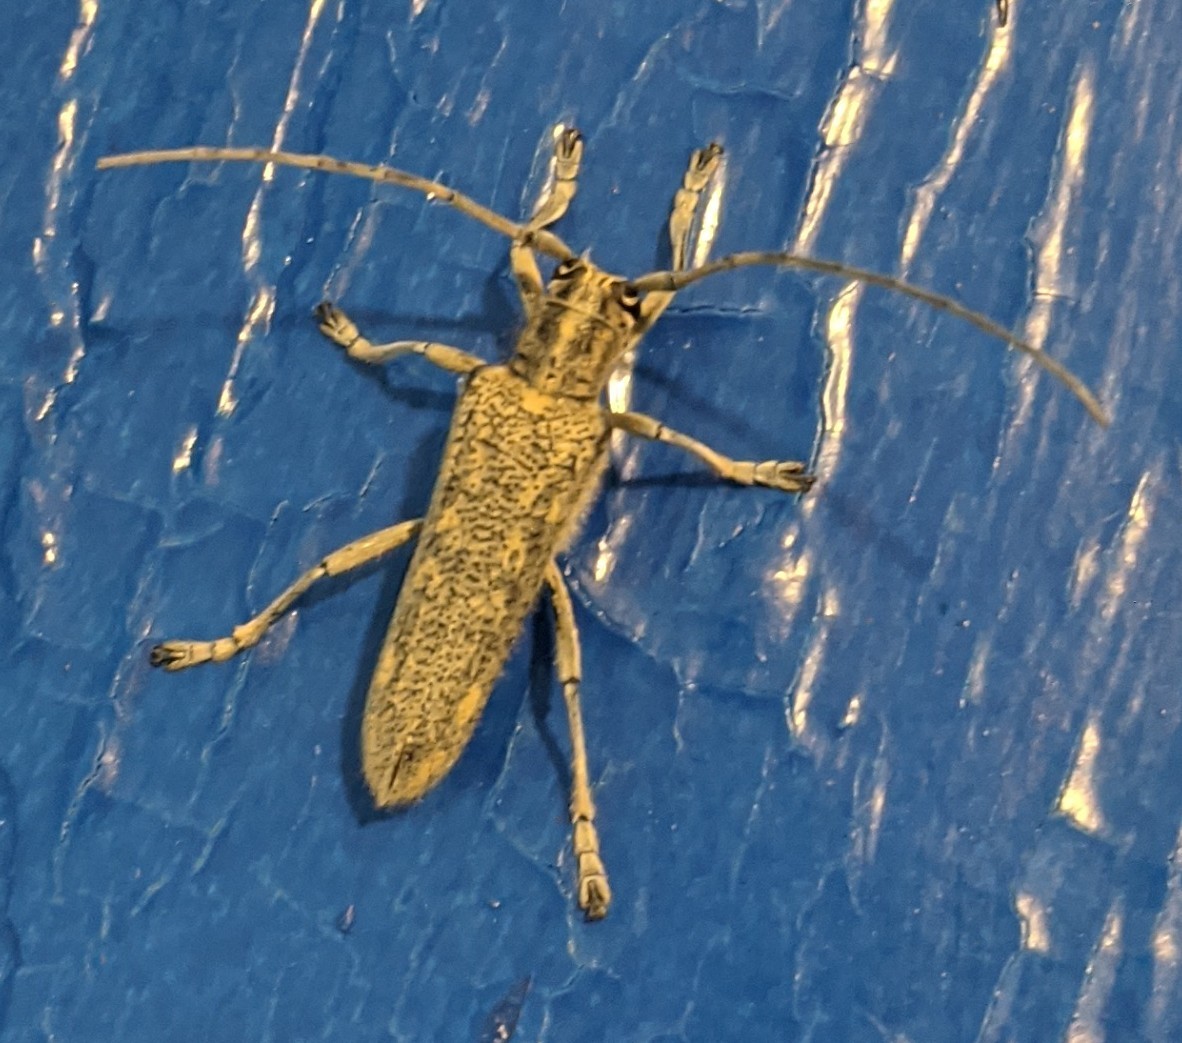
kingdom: Animalia
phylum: Arthropoda
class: Insecta
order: Coleoptera
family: Cerambycidae
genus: Saperda
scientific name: Saperda calcarata
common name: Poplar borer
